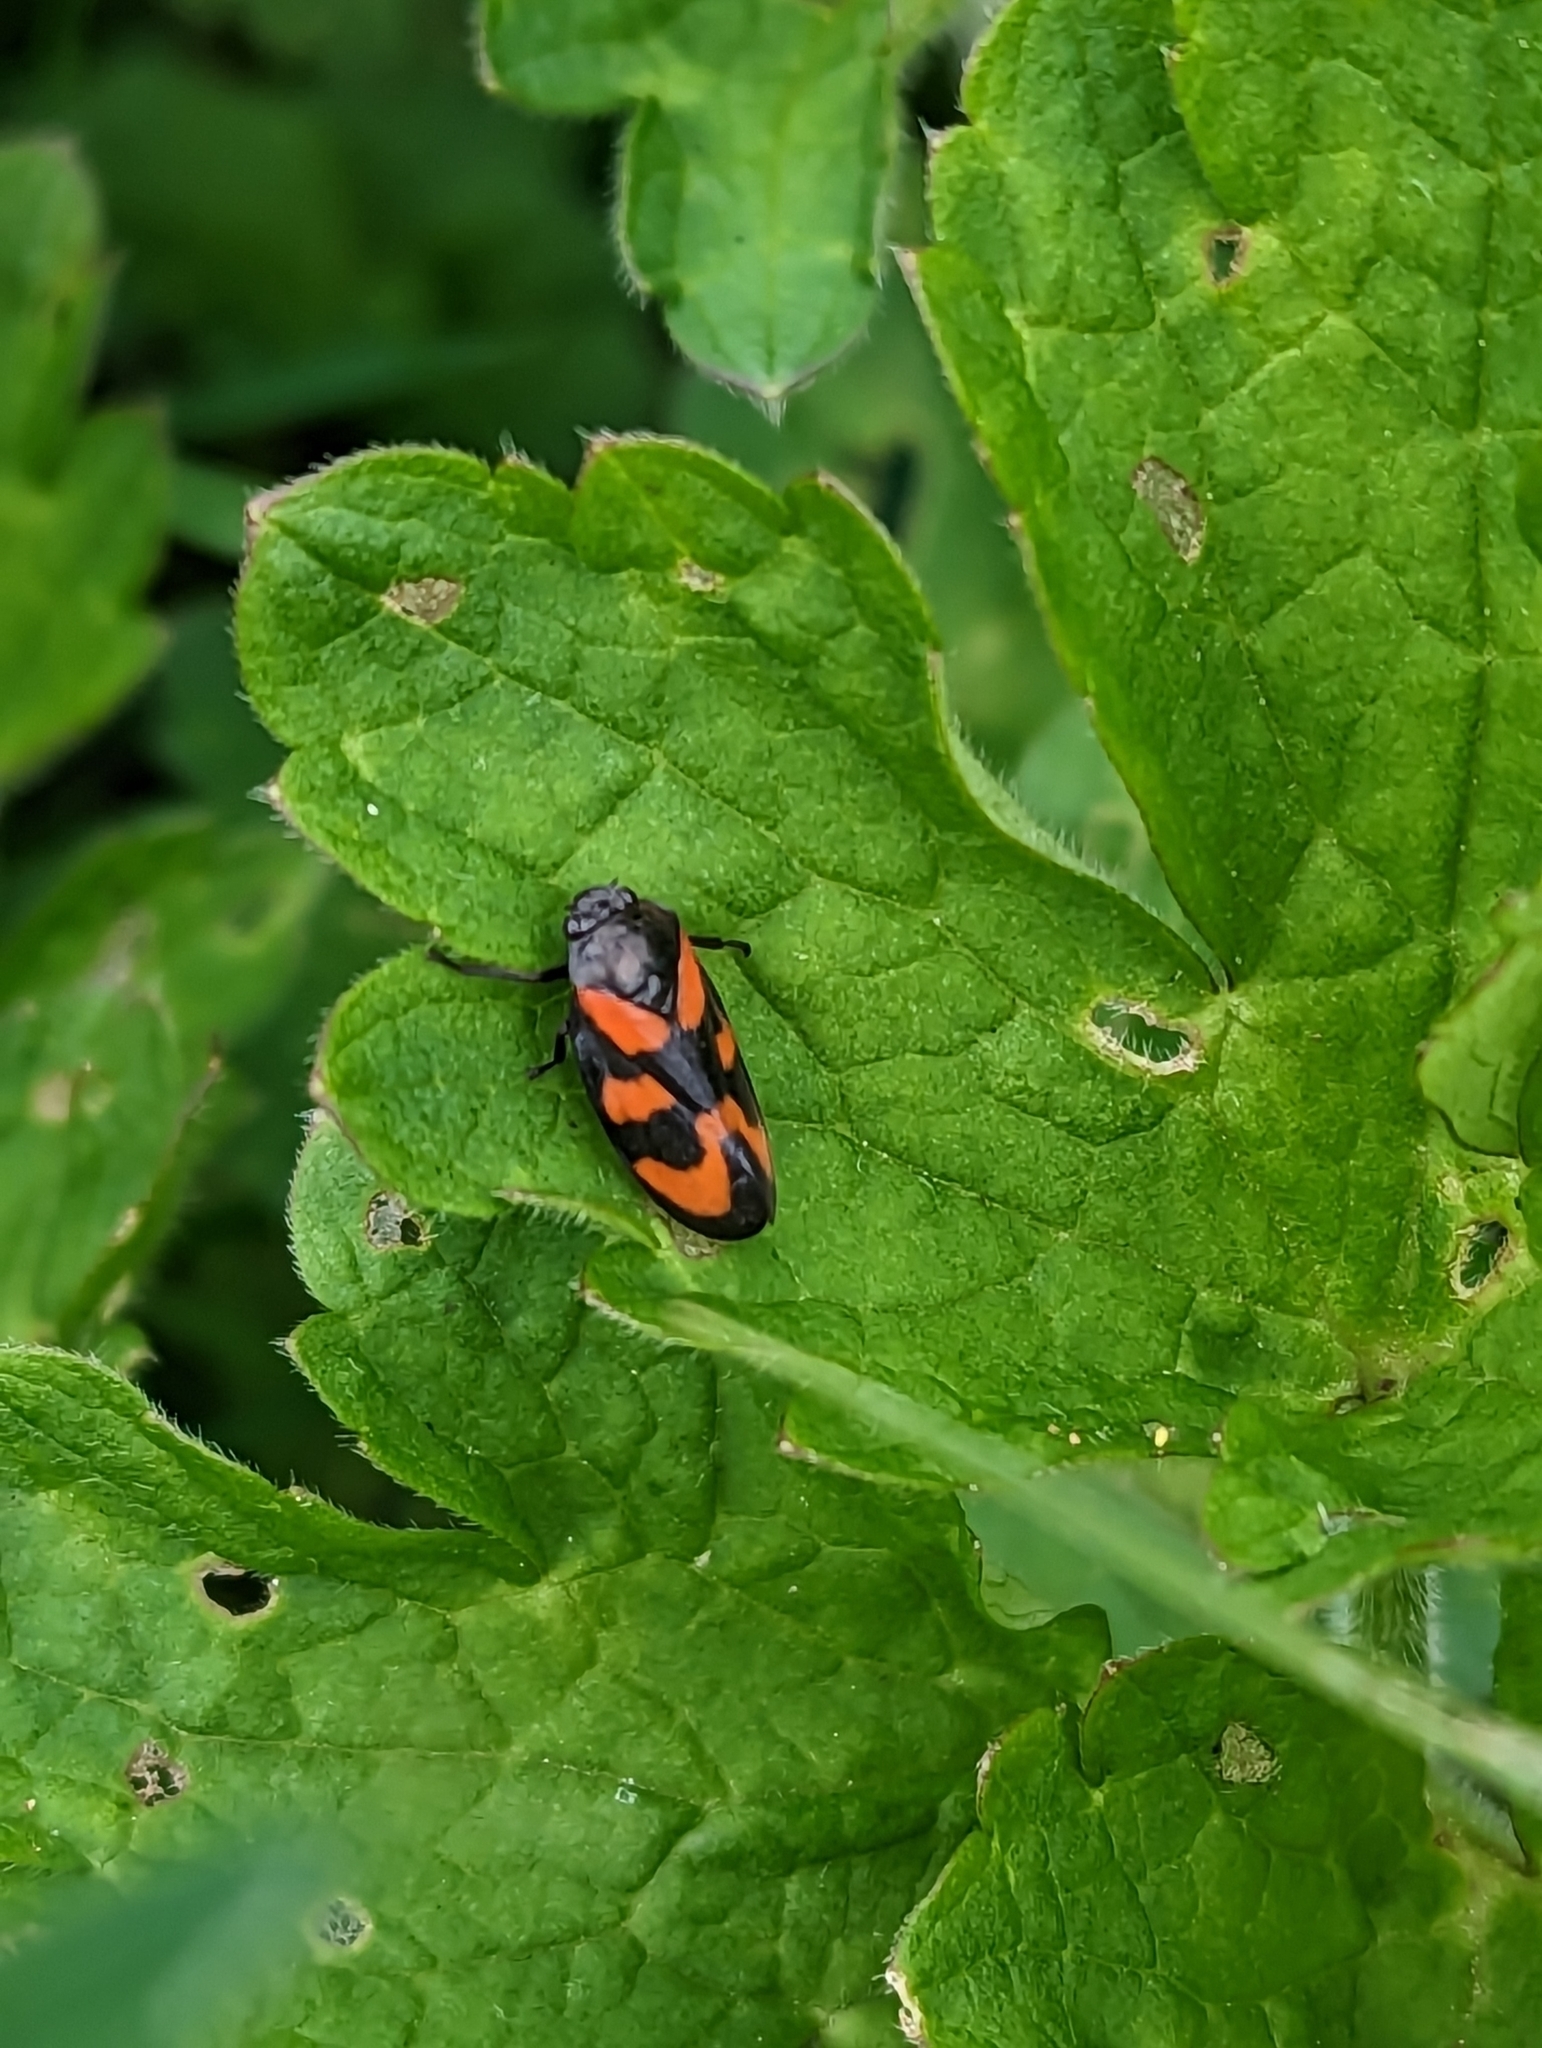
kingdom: Animalia
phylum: Arthropoda
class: Insecta
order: Hemiptera
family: Cercopidae
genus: Cercopis
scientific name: Cercopis vulnerata
